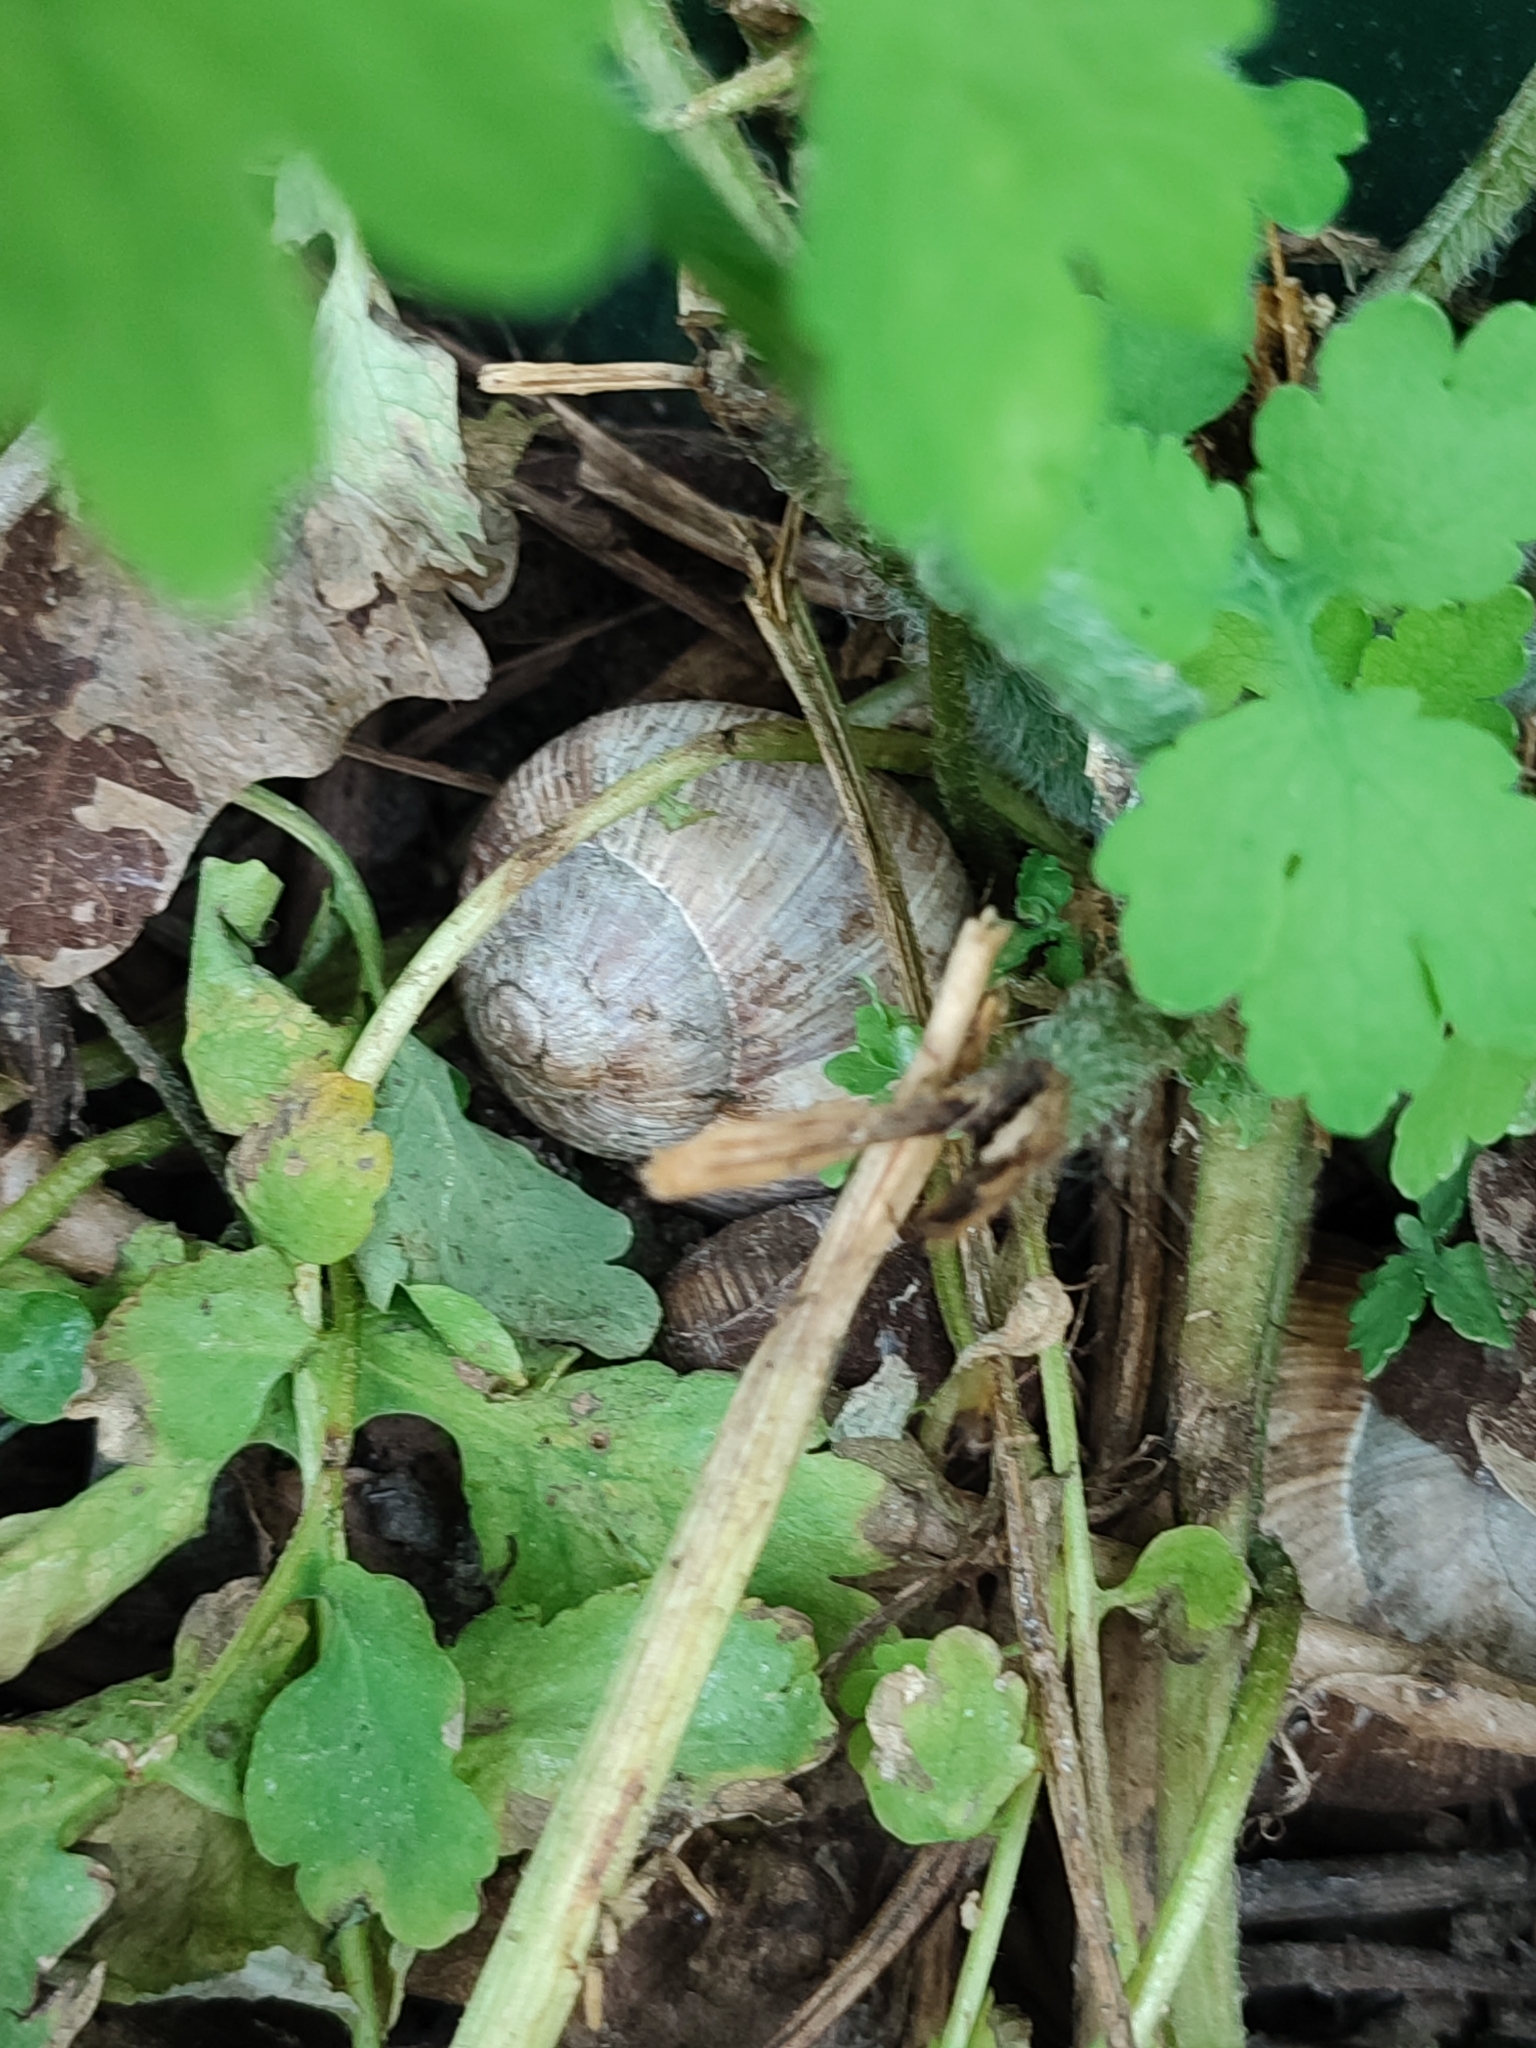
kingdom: Animalia
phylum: Mollusca
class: Gastropoda
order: Stylommatophora
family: Helicidae
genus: Helix
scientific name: Helix pomatia
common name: Roman snail
